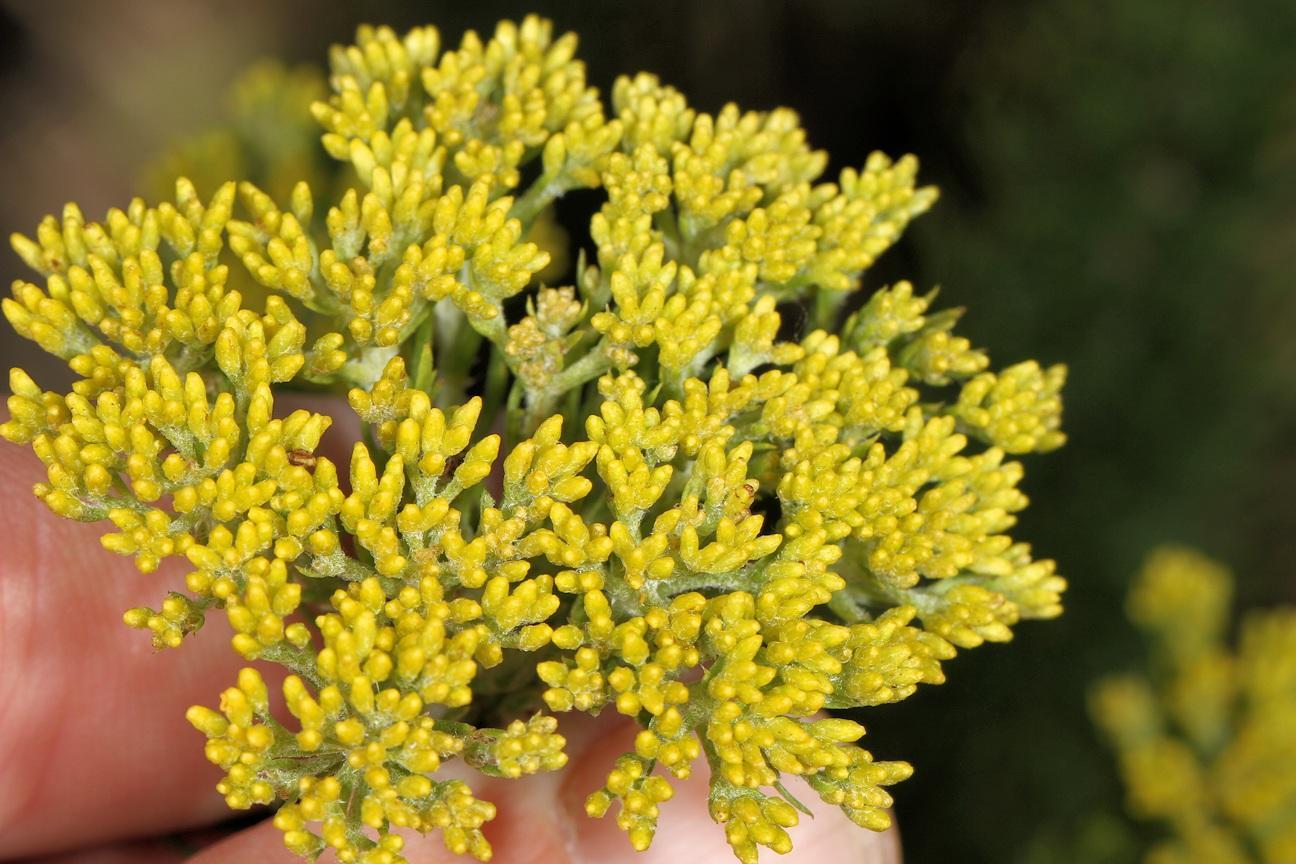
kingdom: Plantae
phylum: Tracheophyta
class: Magnoliopsida
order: Asterales
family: Asteraceae
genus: Inulanthera
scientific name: Inulanthera dregeana
